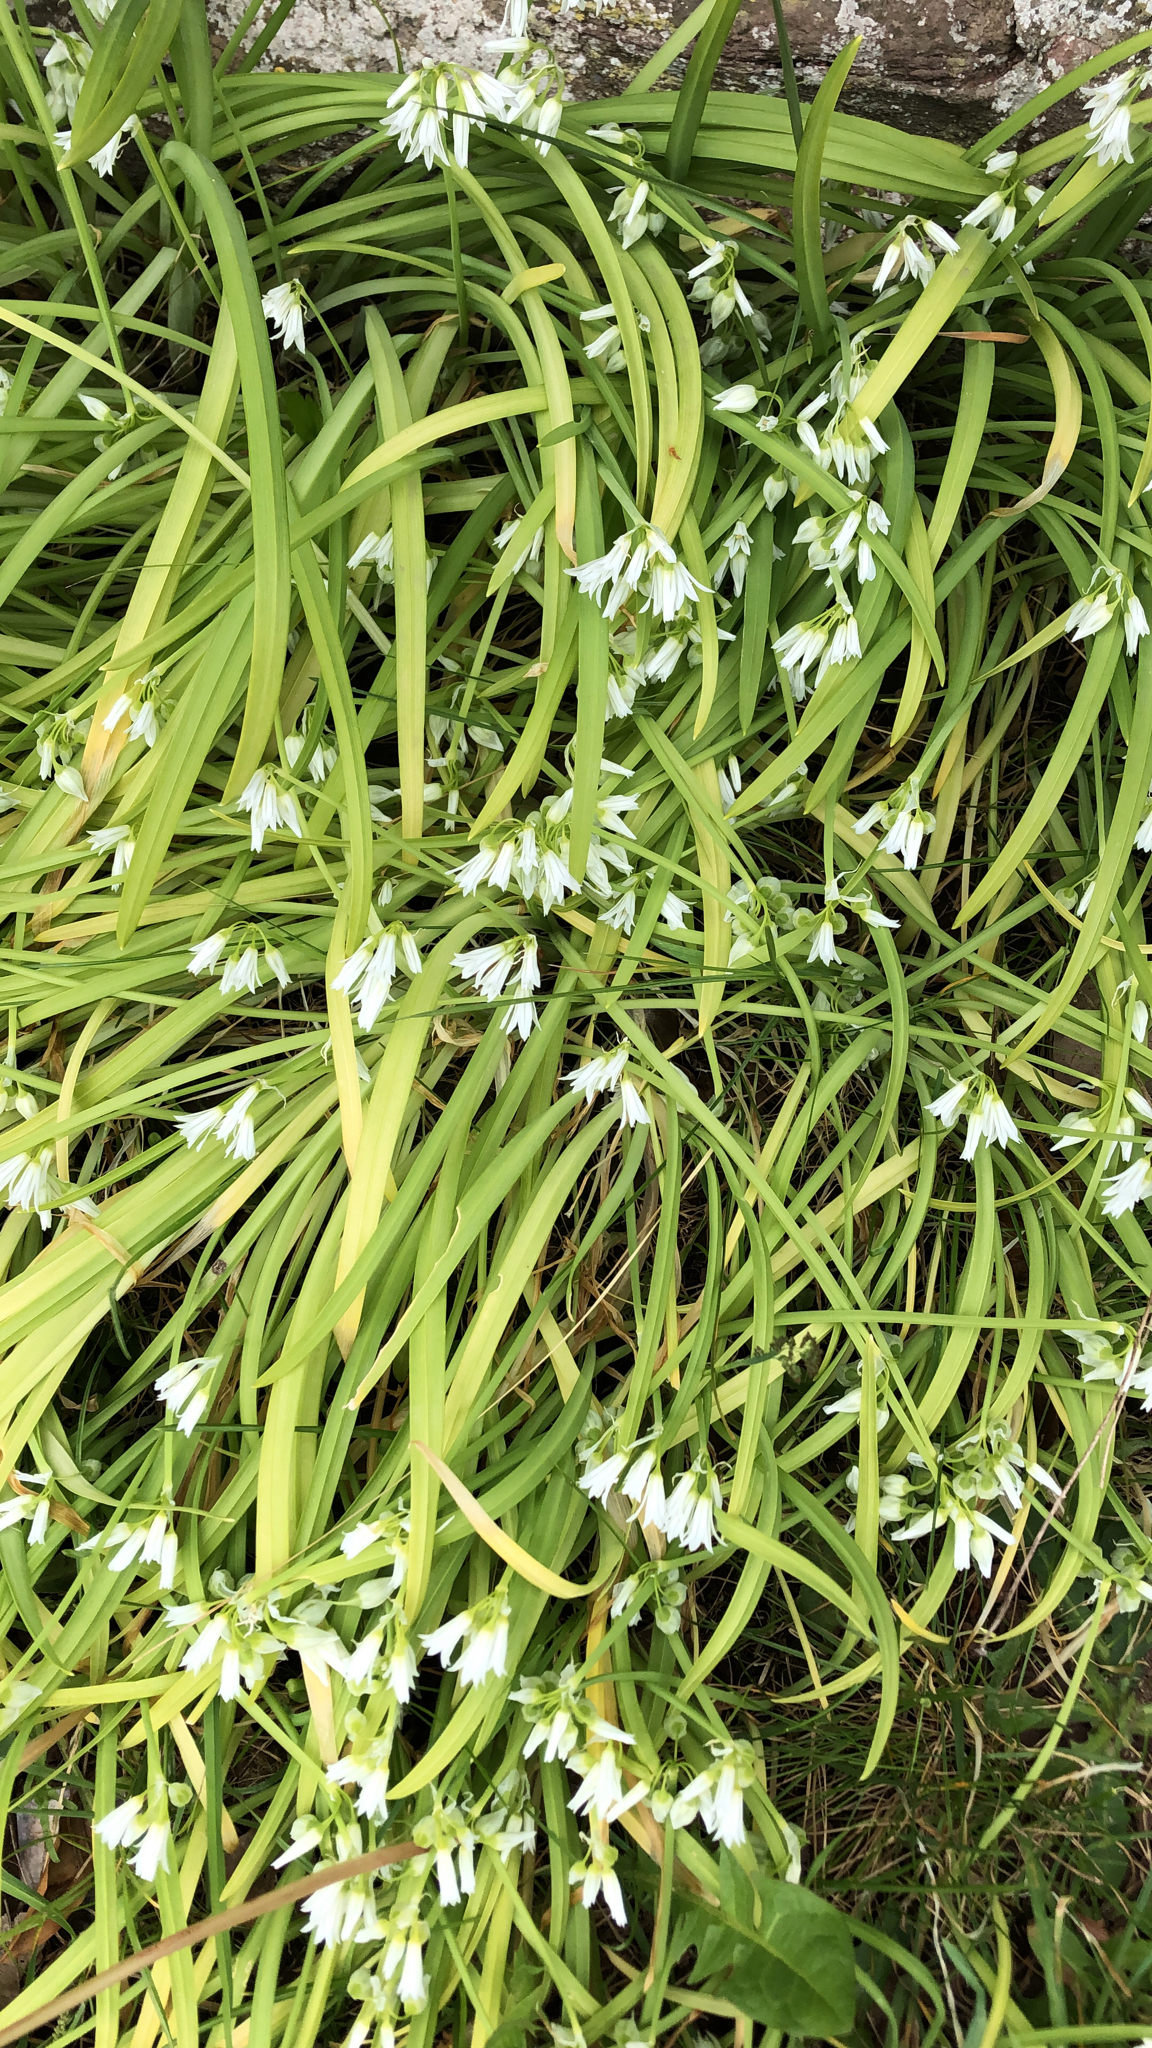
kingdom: Plantae
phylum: Tracheophyta
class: Liliopsida
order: Asparagales
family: Amaryllidaceae
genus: Allium
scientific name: Allium triquetrum
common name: Three-cornered garlic
